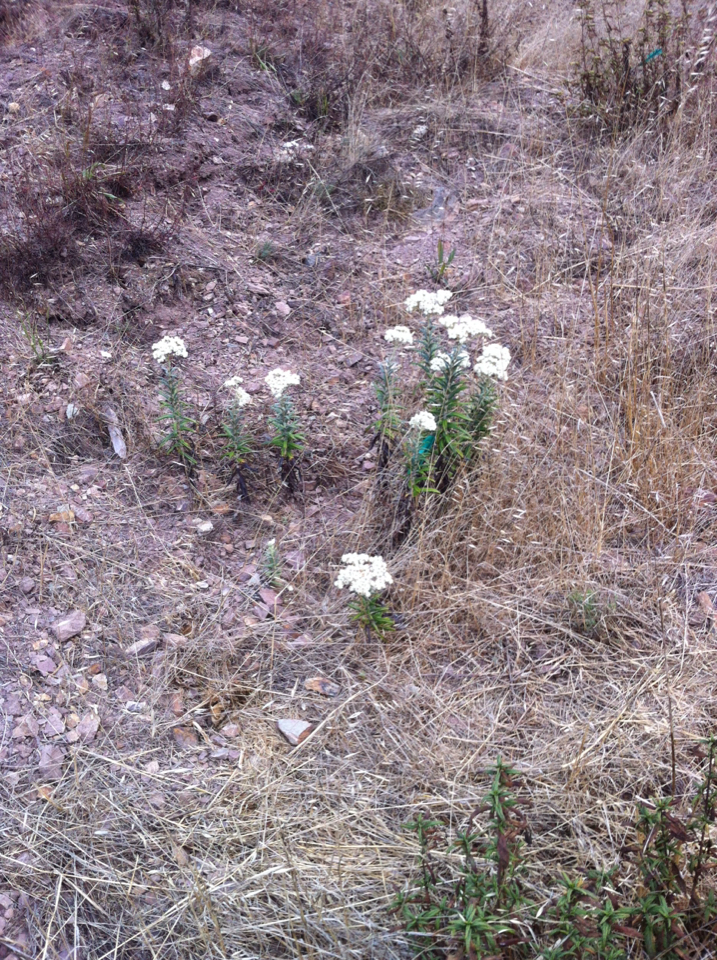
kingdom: Plantae
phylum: Tracheophyta
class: Magnoliopsida
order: Asterales
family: Asteraceae
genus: Anaphalis
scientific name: Anaphalis margaritacea
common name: Pearly everlasting
